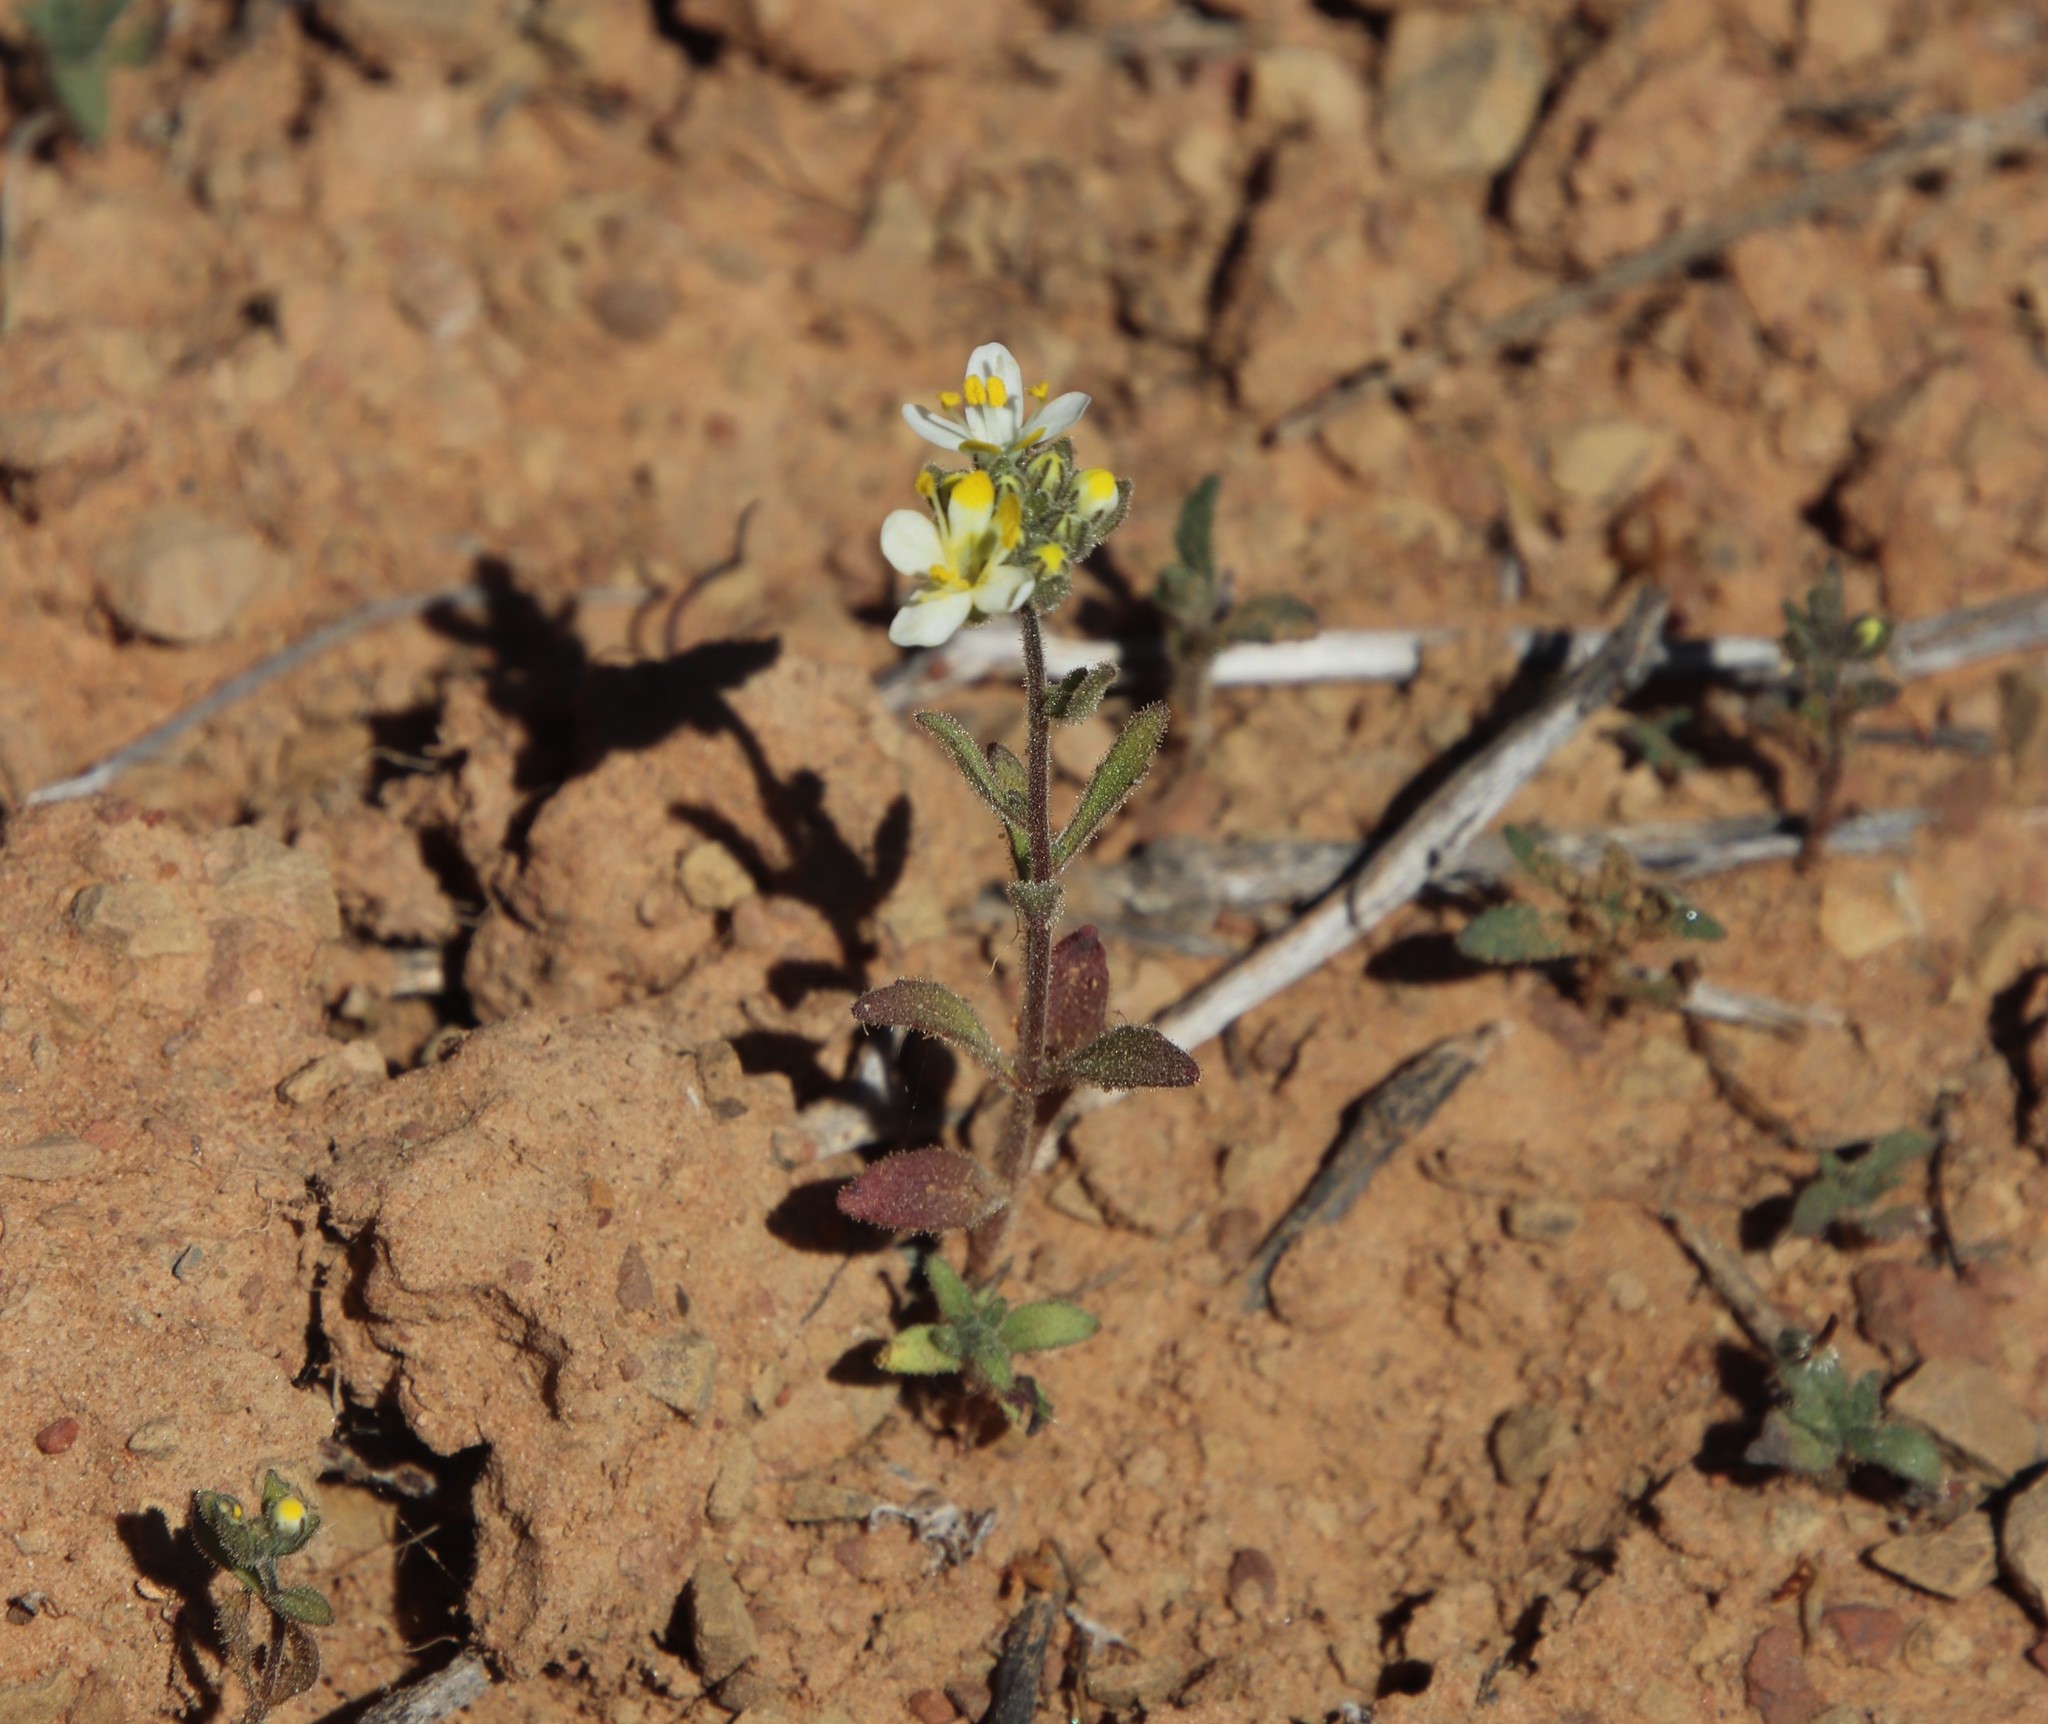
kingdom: Plantae
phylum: Tracheophyta
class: Magnoliopsida
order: Lamiales
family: Scrophulariaceae
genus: Polycarena
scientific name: Polycarena aurea
